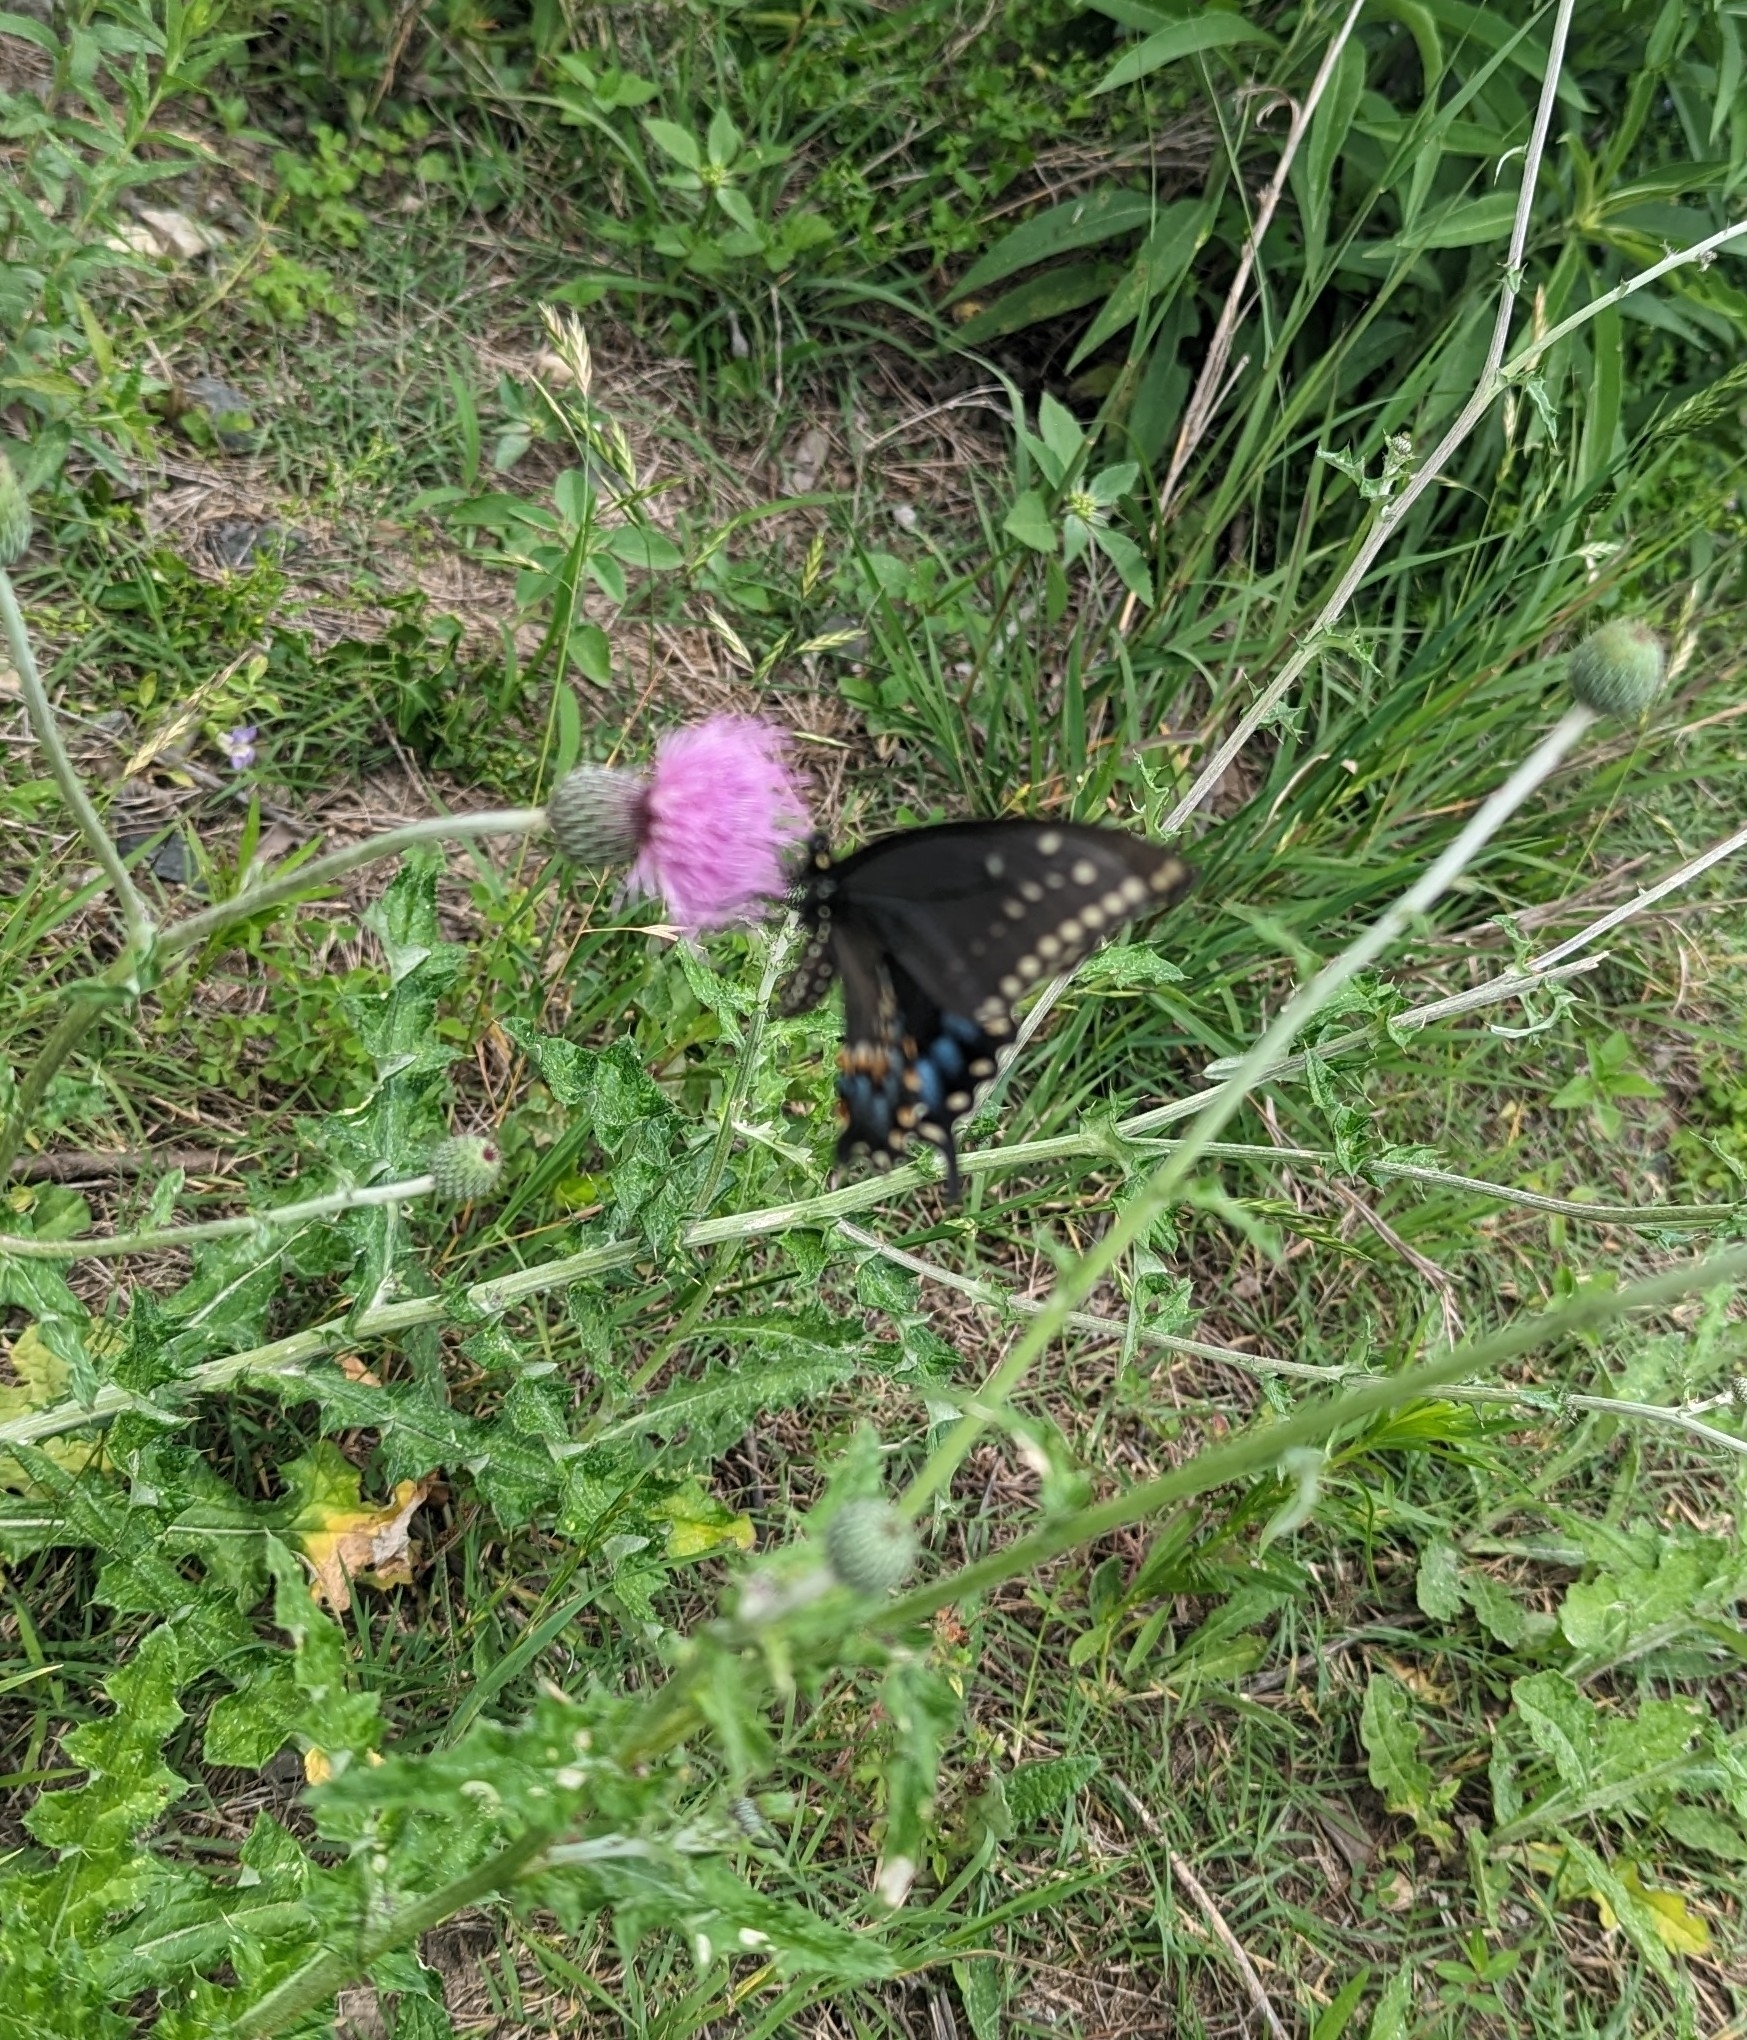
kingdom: Animalia
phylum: Arthropoda
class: Insecta
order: Lepidoptera
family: Papilionidae
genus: Papilio
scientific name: Papilio polyxenes
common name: Black swallowtail
